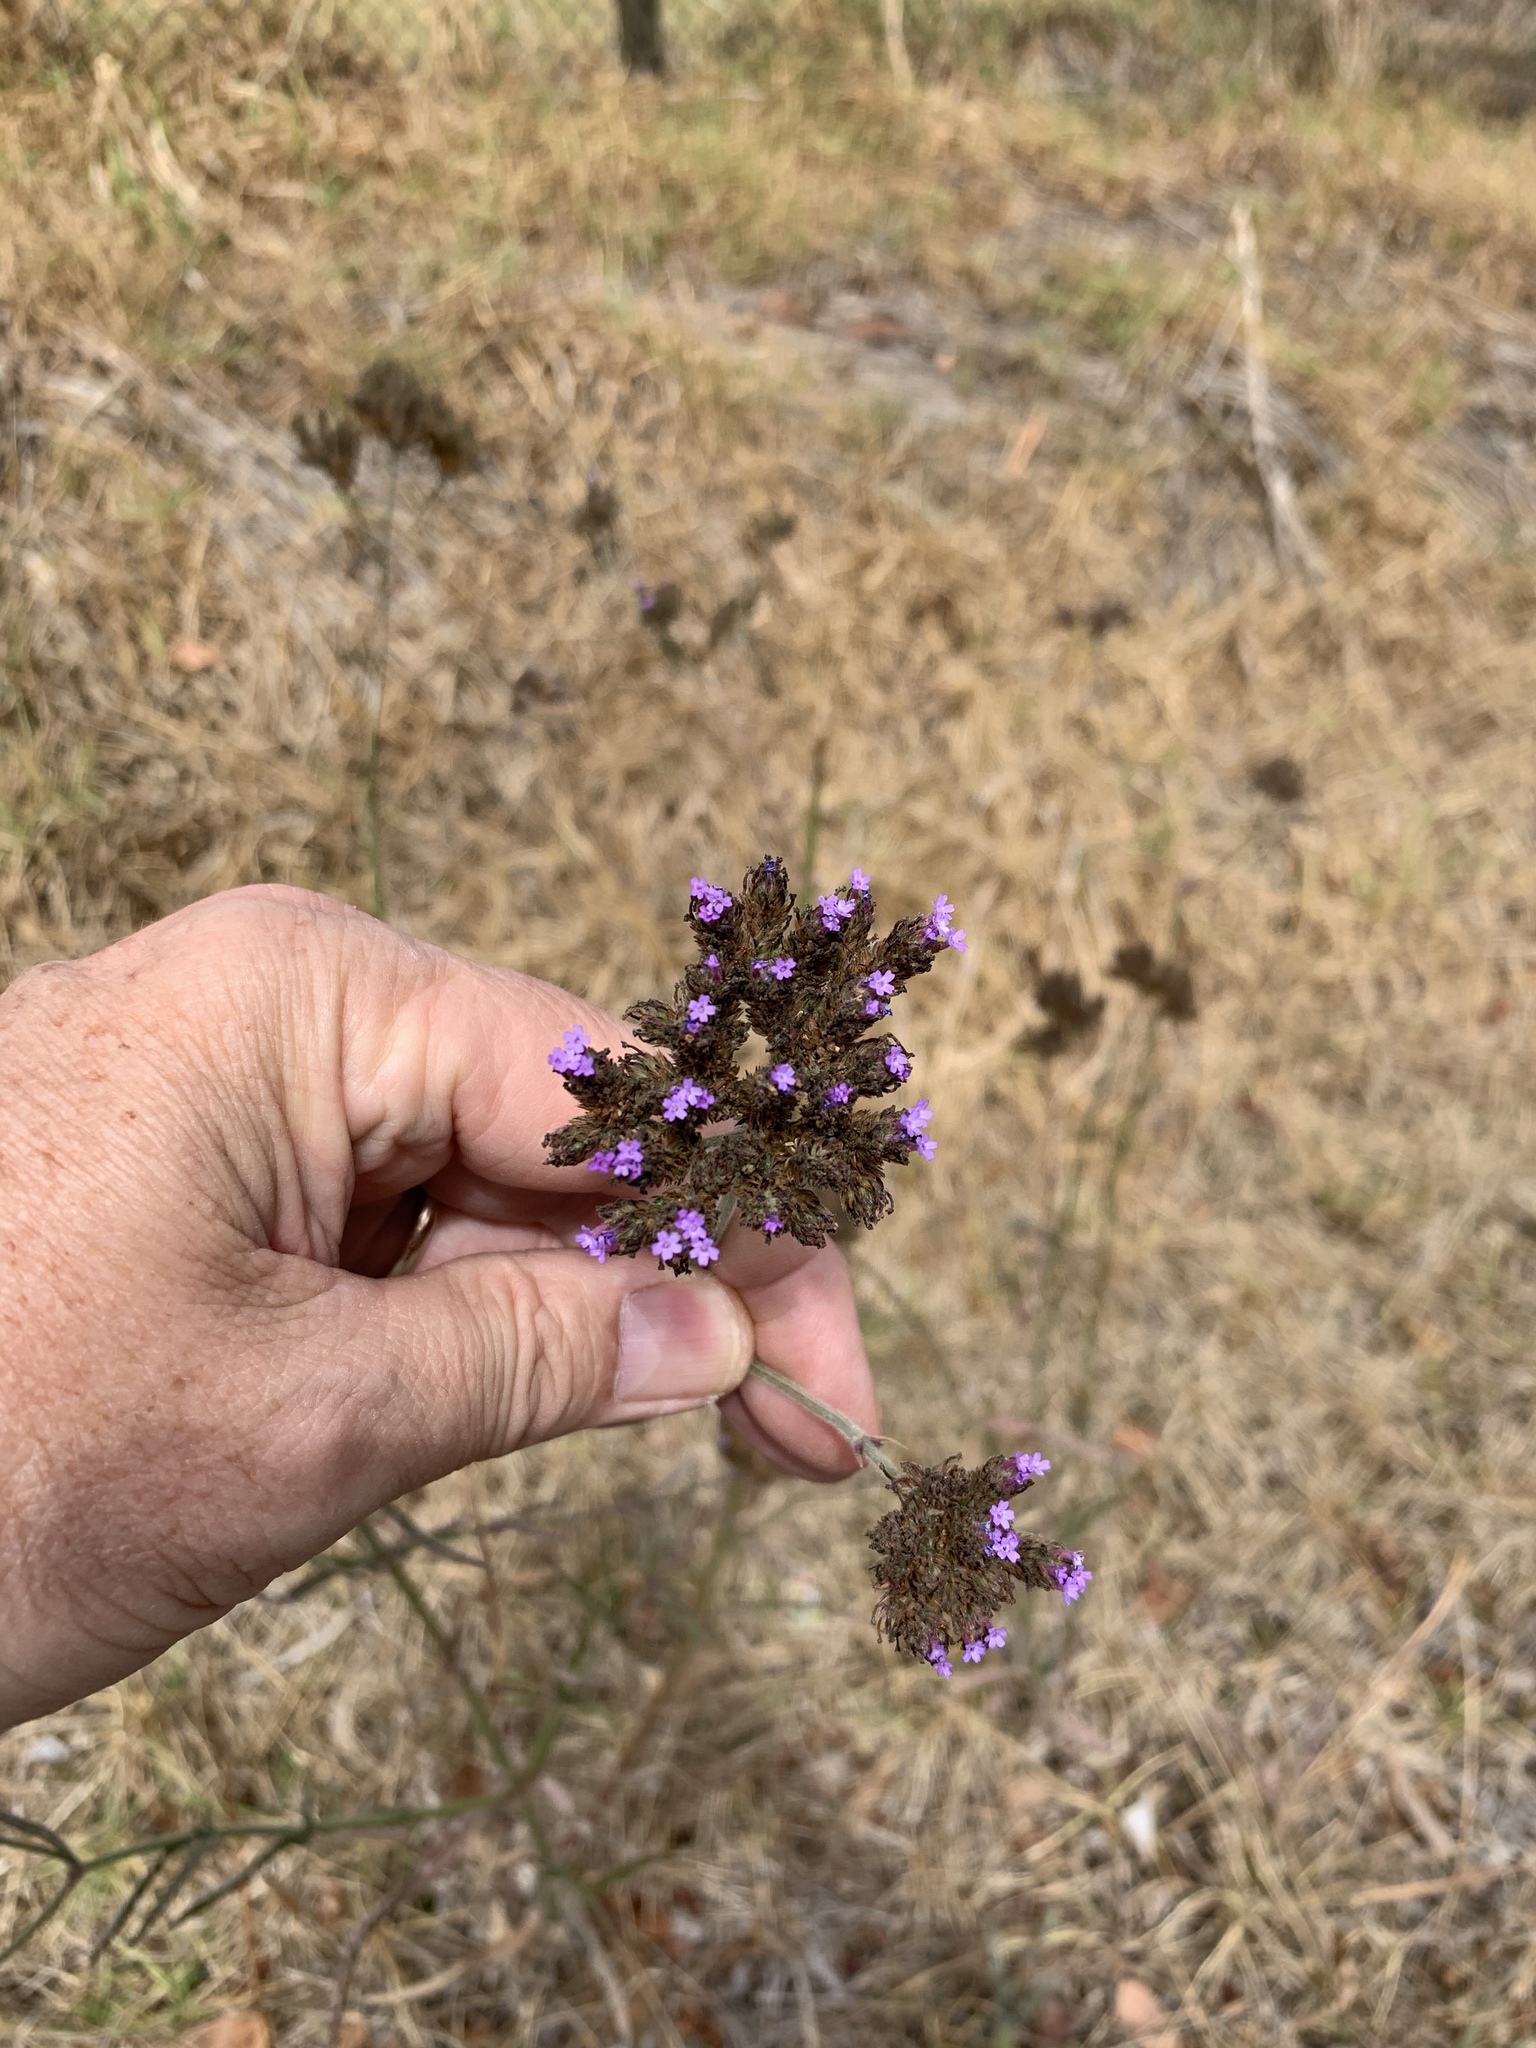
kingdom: Plantae
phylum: Tracheophyta
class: Magnoliopsida
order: Lamiales
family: Verbenaceae
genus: Verbena
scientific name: Verbena bonariensis
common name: Purpletop vervain
